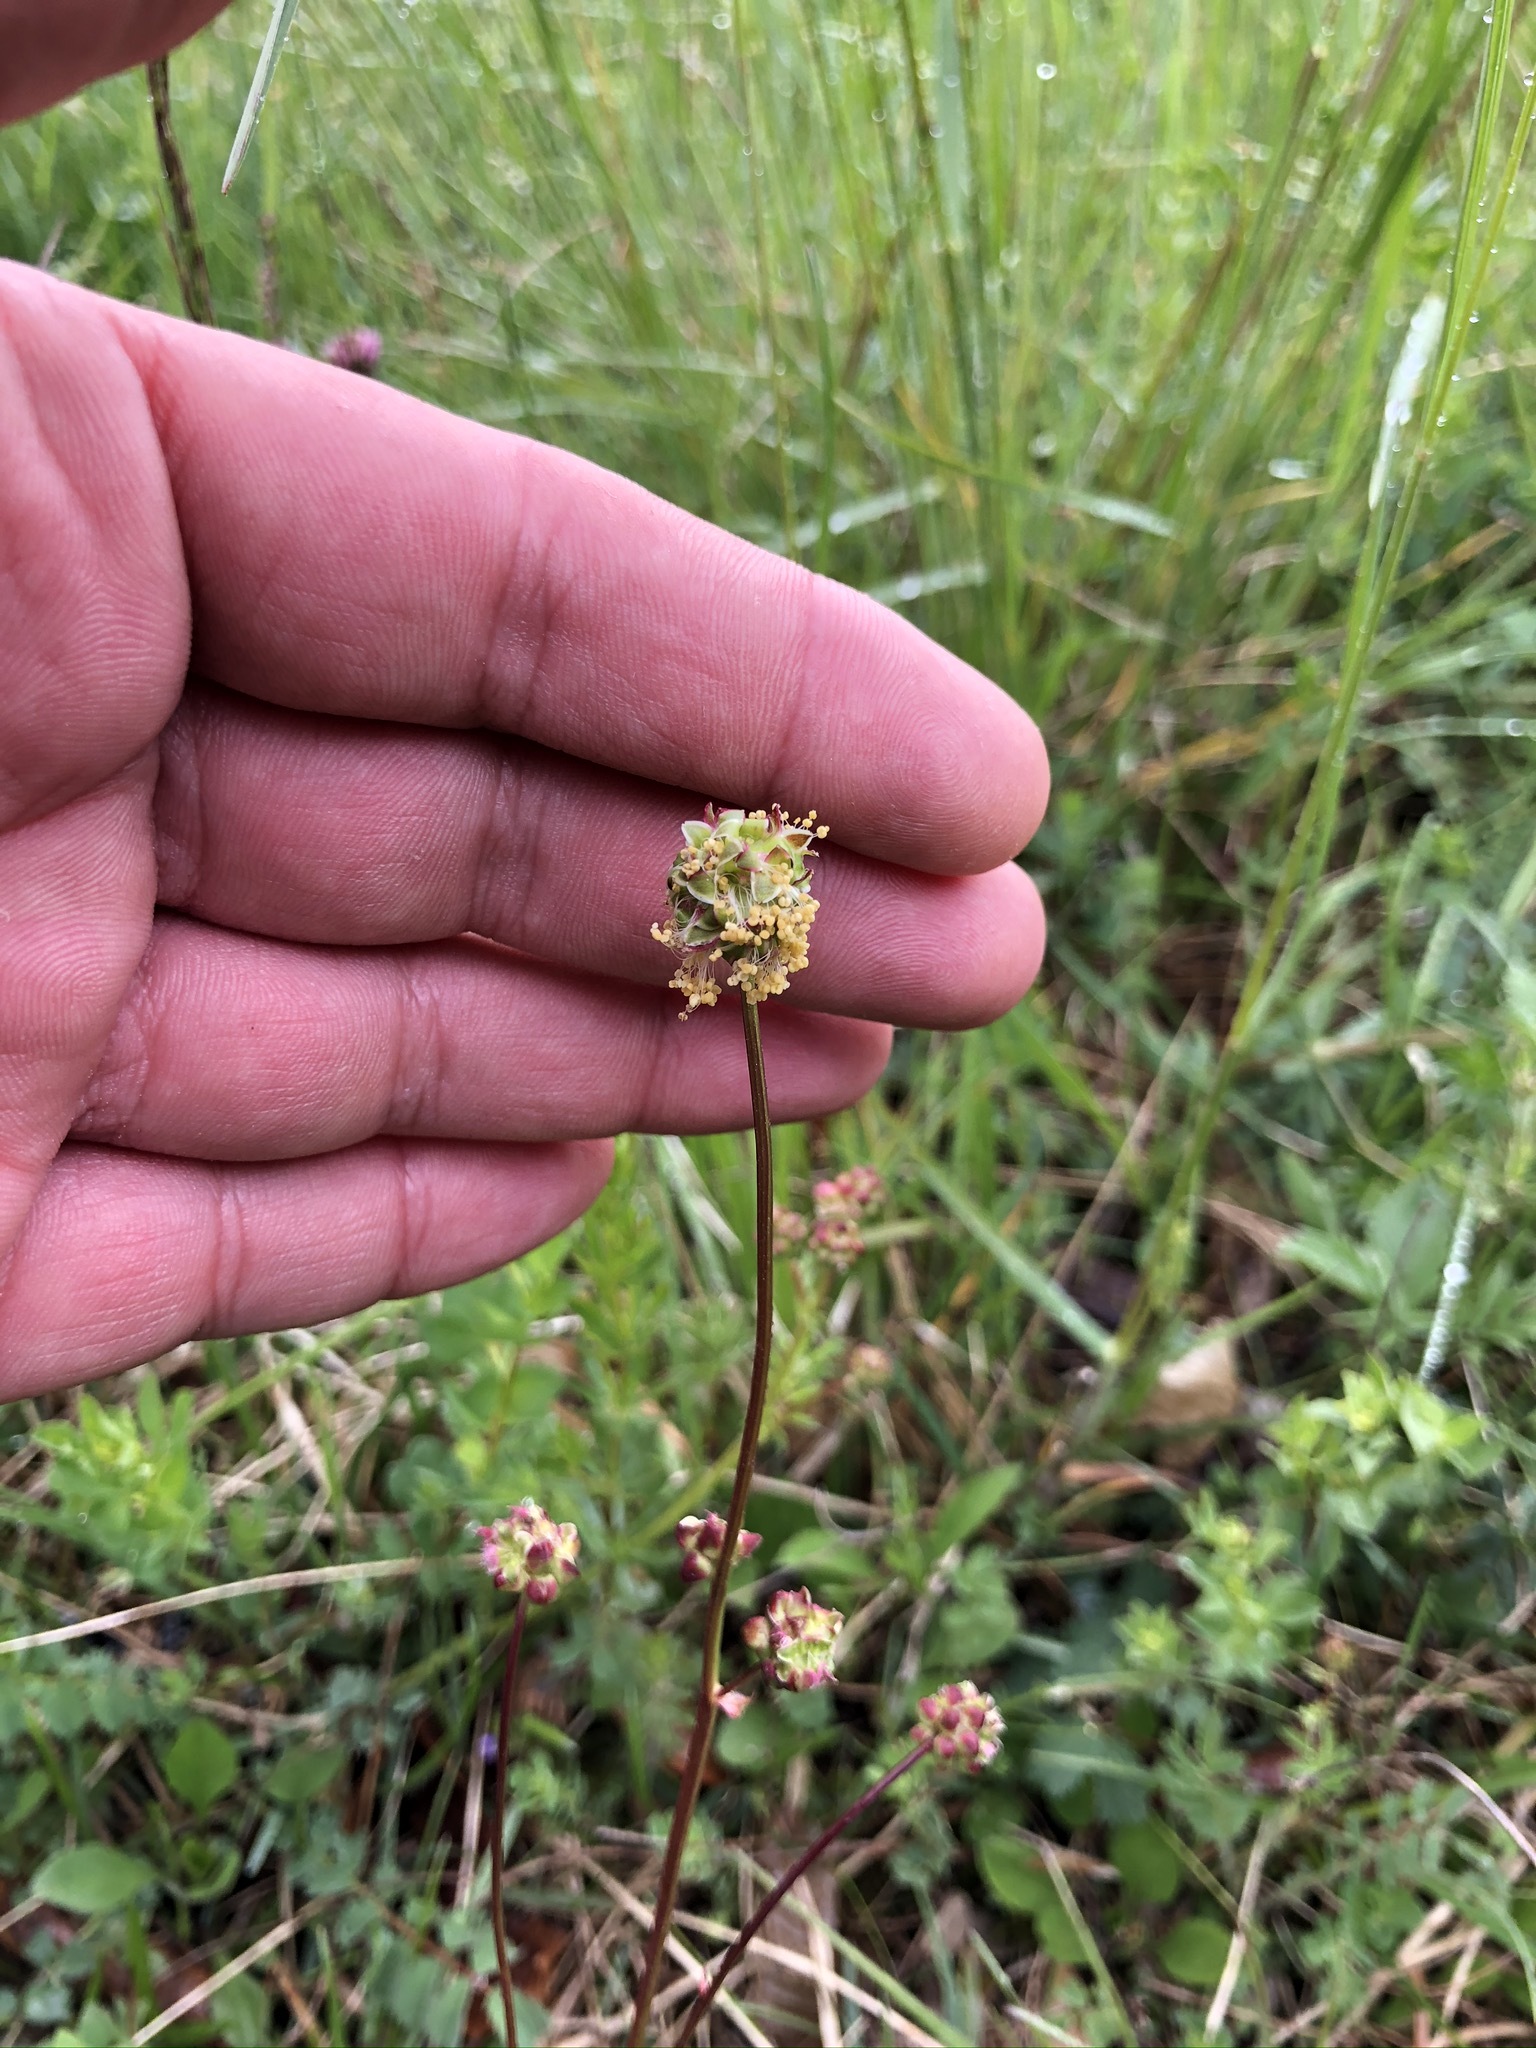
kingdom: Plantae
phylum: Tracheophyta
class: Magnoliopsida
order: Rosales
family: Rosaceae
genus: Poterium
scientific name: Poterium sanguisorba
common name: Salad burnet
